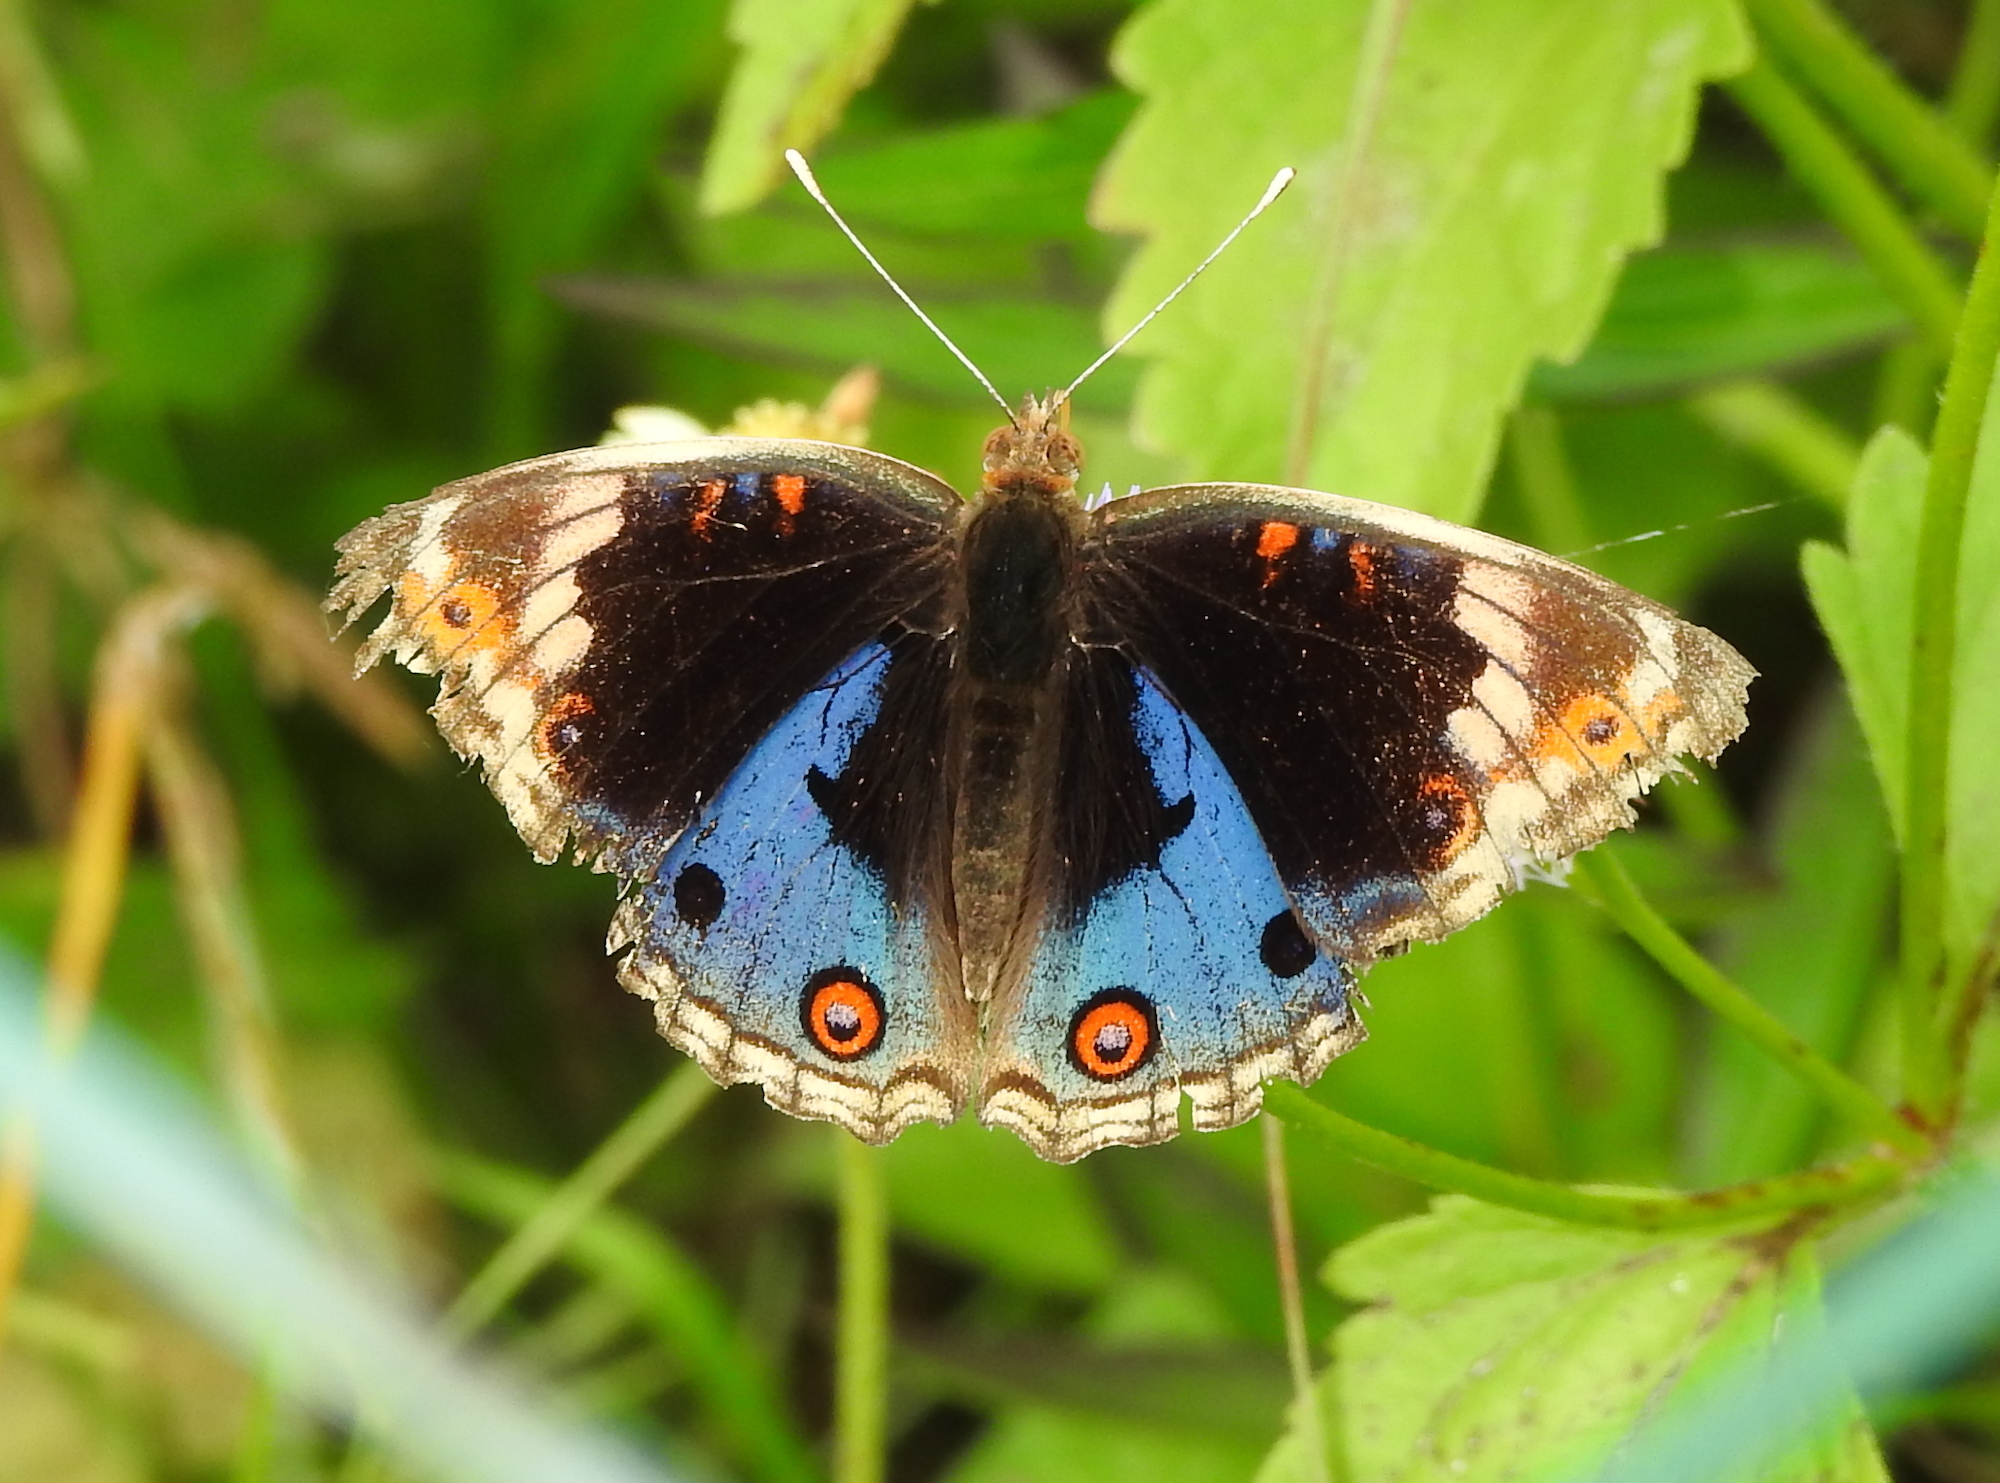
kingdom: Animalia
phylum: Arthropoda
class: Insecta
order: Lepidoptera
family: Nymphalidae
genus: Junonia
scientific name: Junonia orithya
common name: Blue pansy
